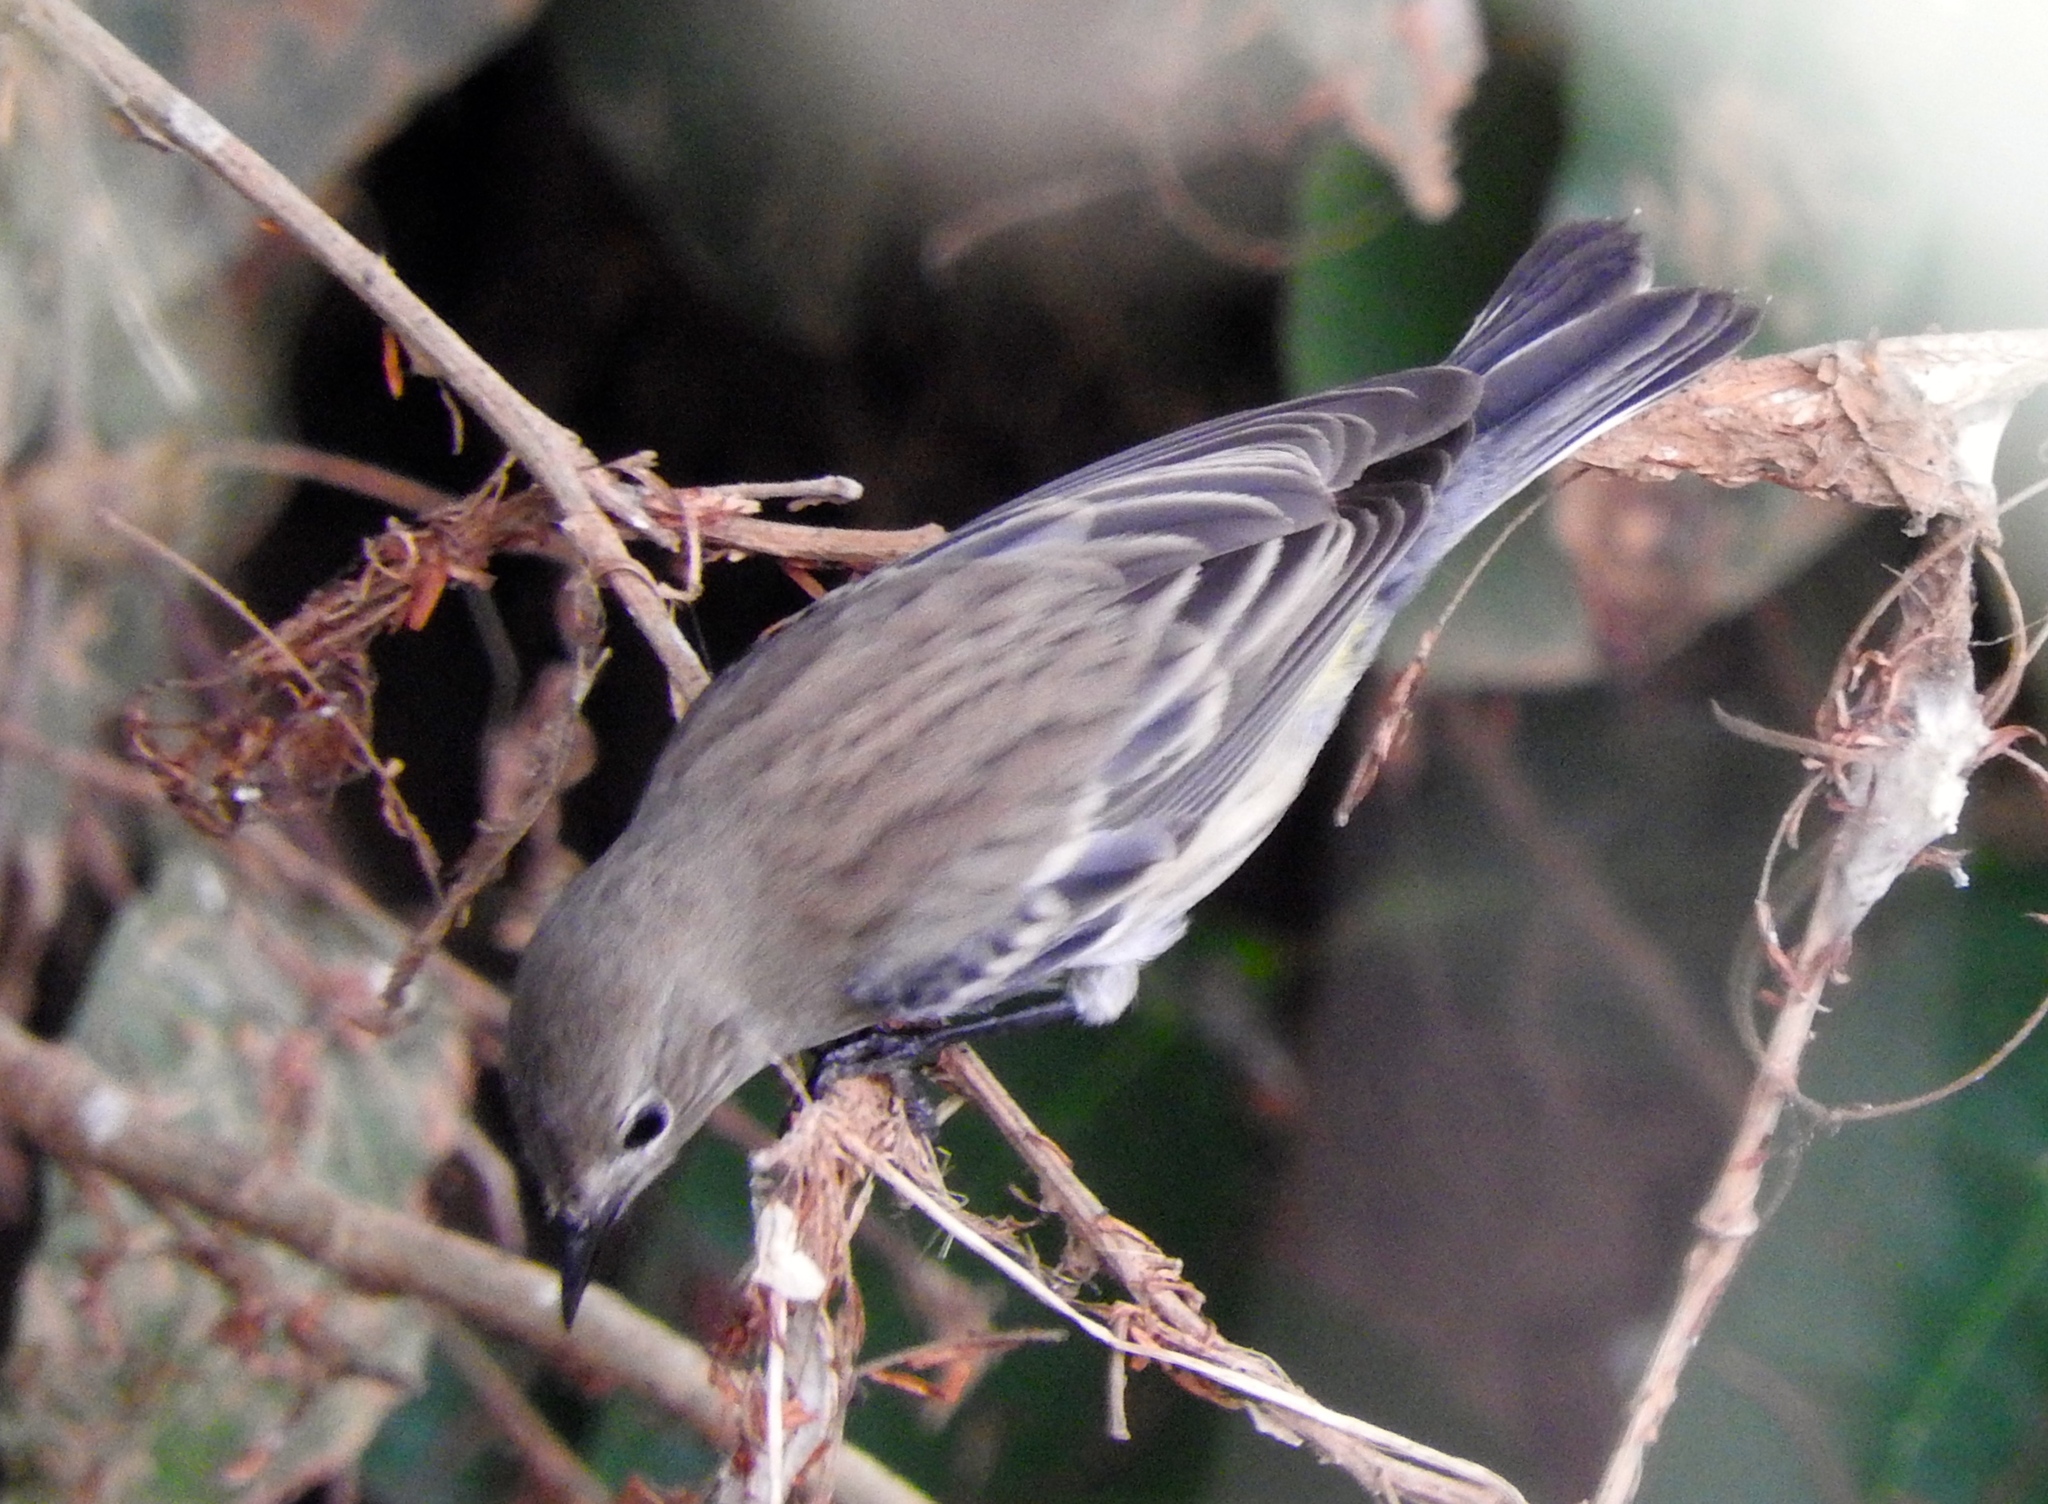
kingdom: Animalia
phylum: Chordata
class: Aves
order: Passeriformes
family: Parulidae
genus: Setophaga
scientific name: Setophaga coronata
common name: Myrtle warbler
